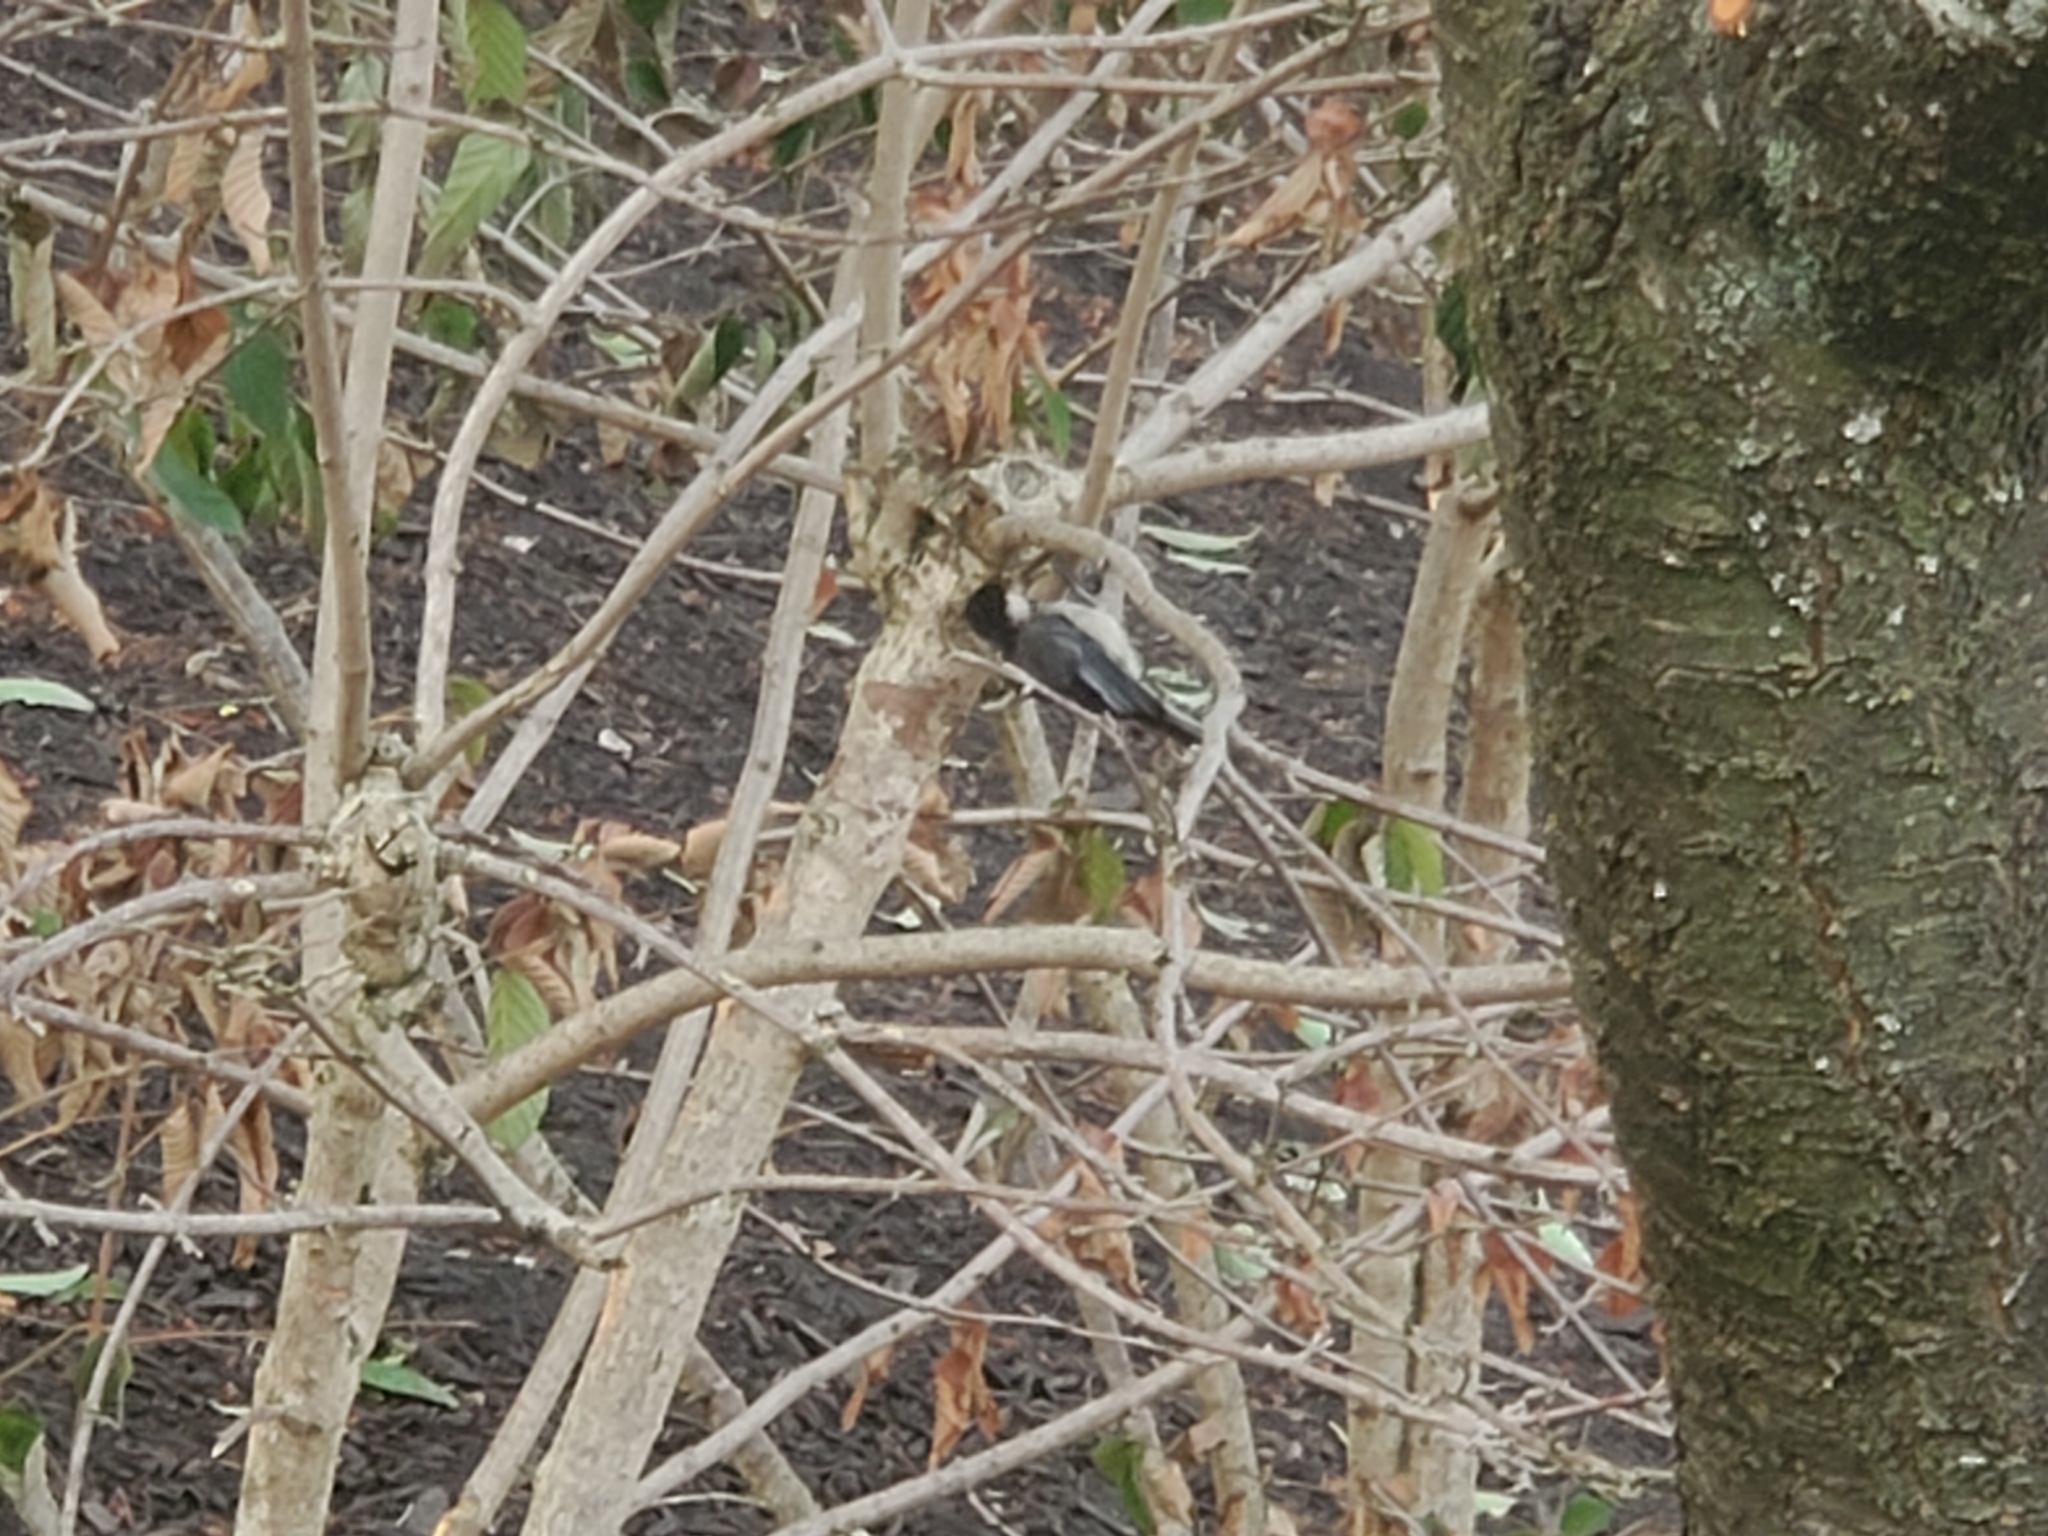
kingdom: Animalia
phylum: Chordata
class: Aves
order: Passeriformes
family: Paridae
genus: Poecile
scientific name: Poecile atricapillus
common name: Black-capped chickadee
